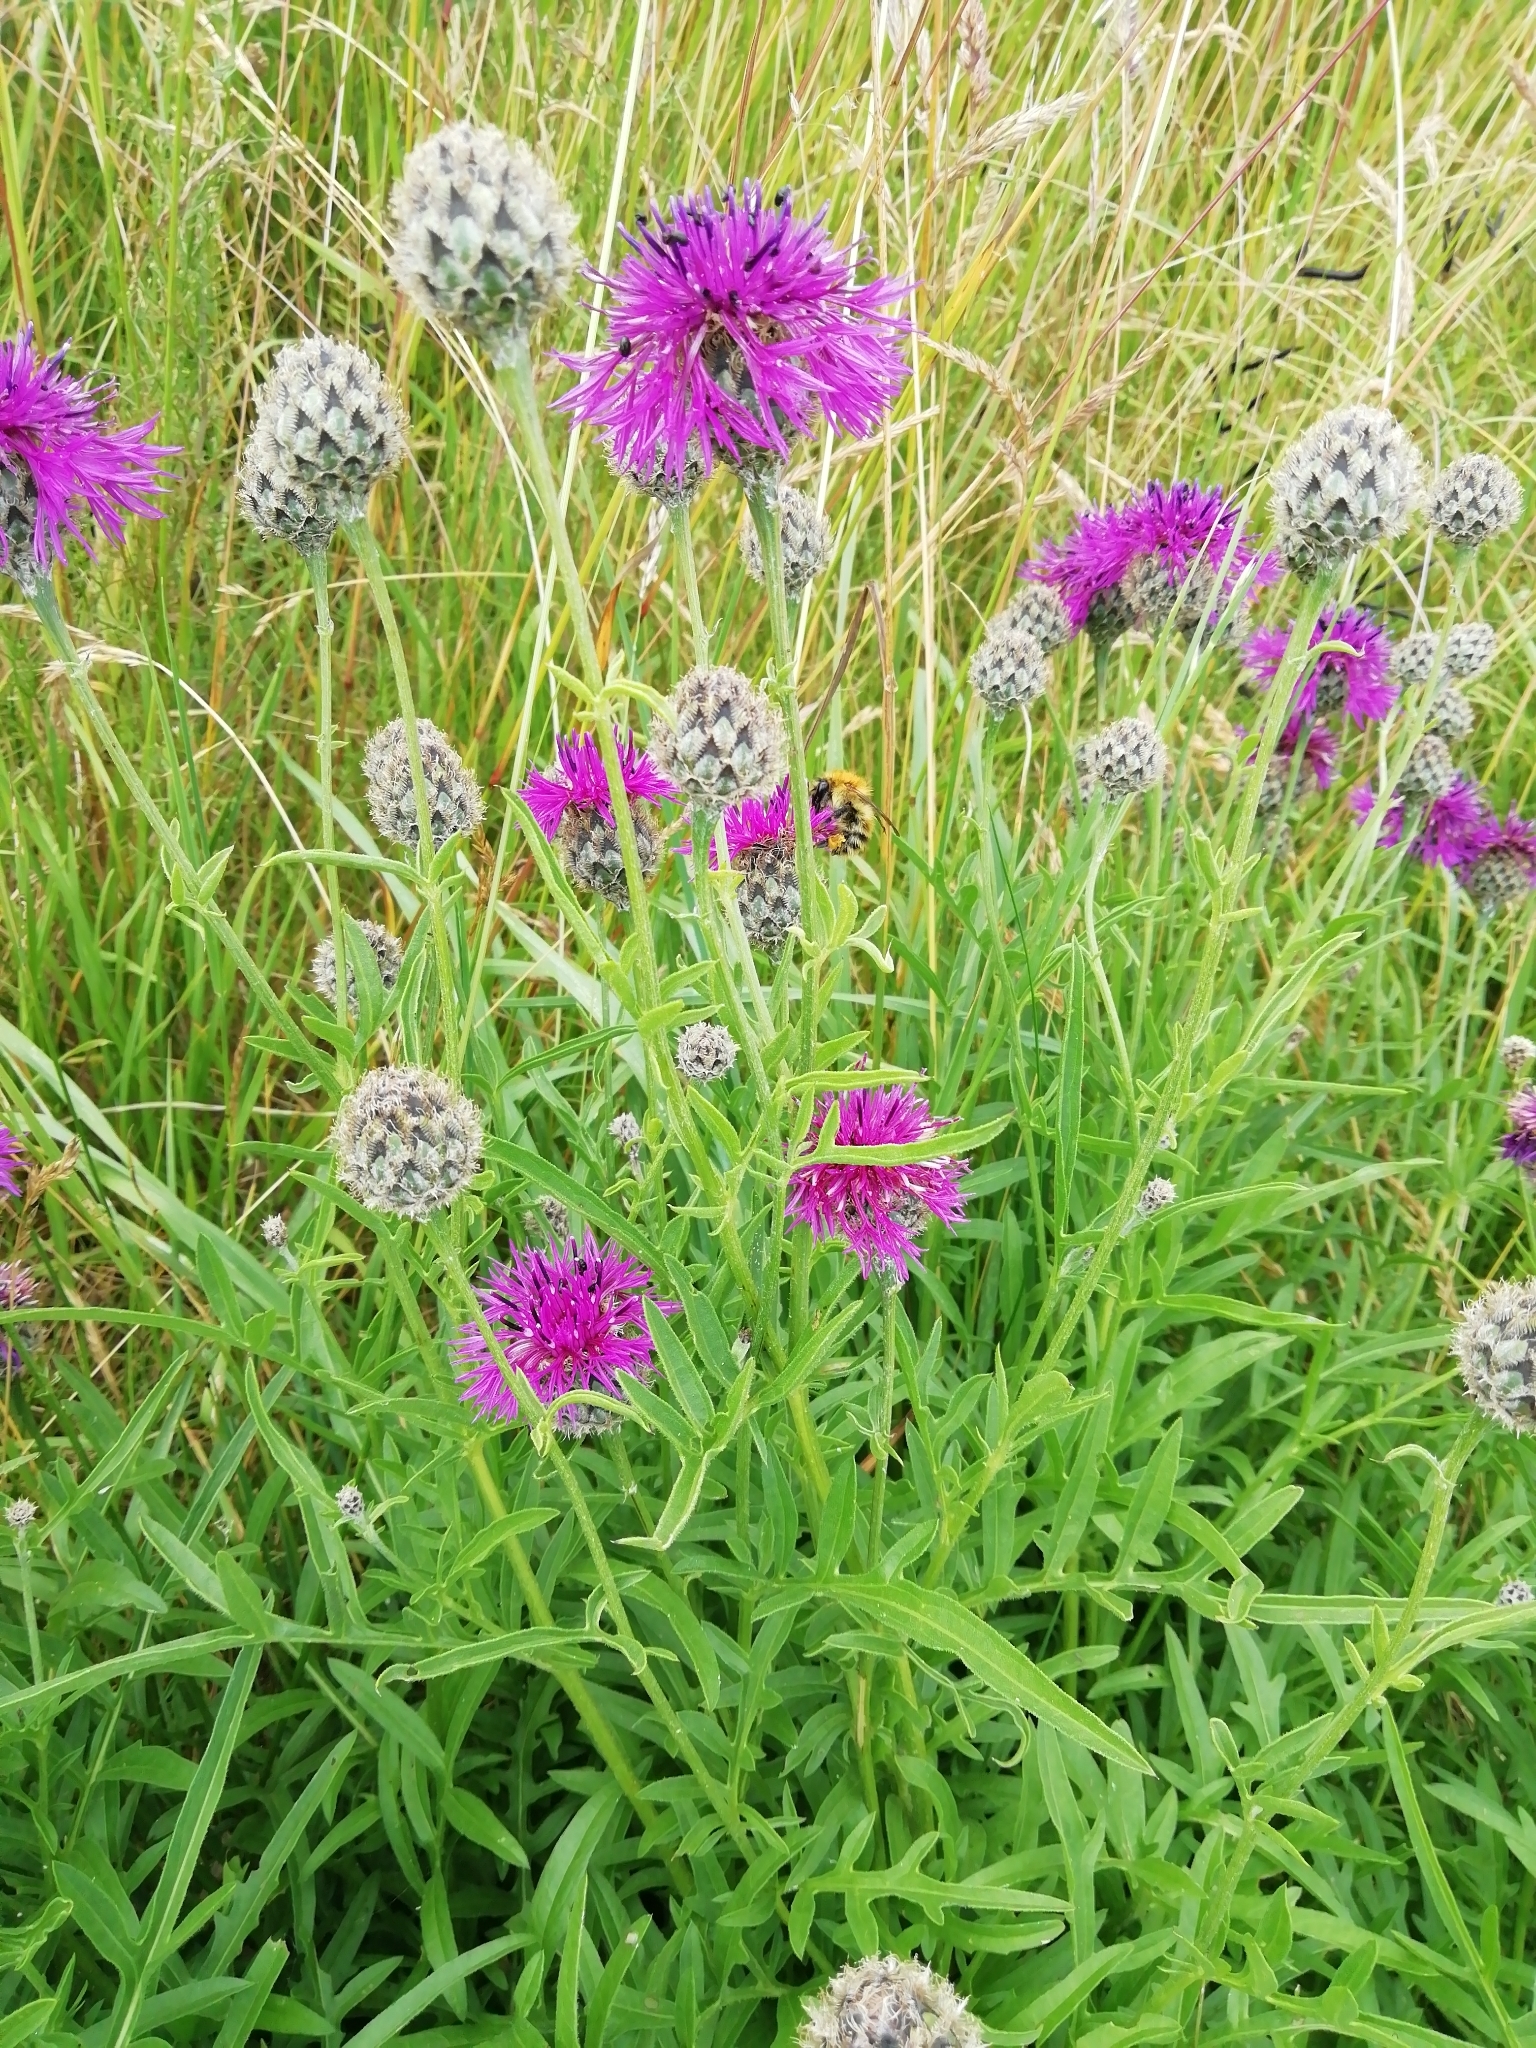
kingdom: Plantae
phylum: Tracheophyta
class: Magnoliopsida
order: Asterales
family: Asteraceae
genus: Centaurea
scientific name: Centaurea scabiosa
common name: Greater knapweed
